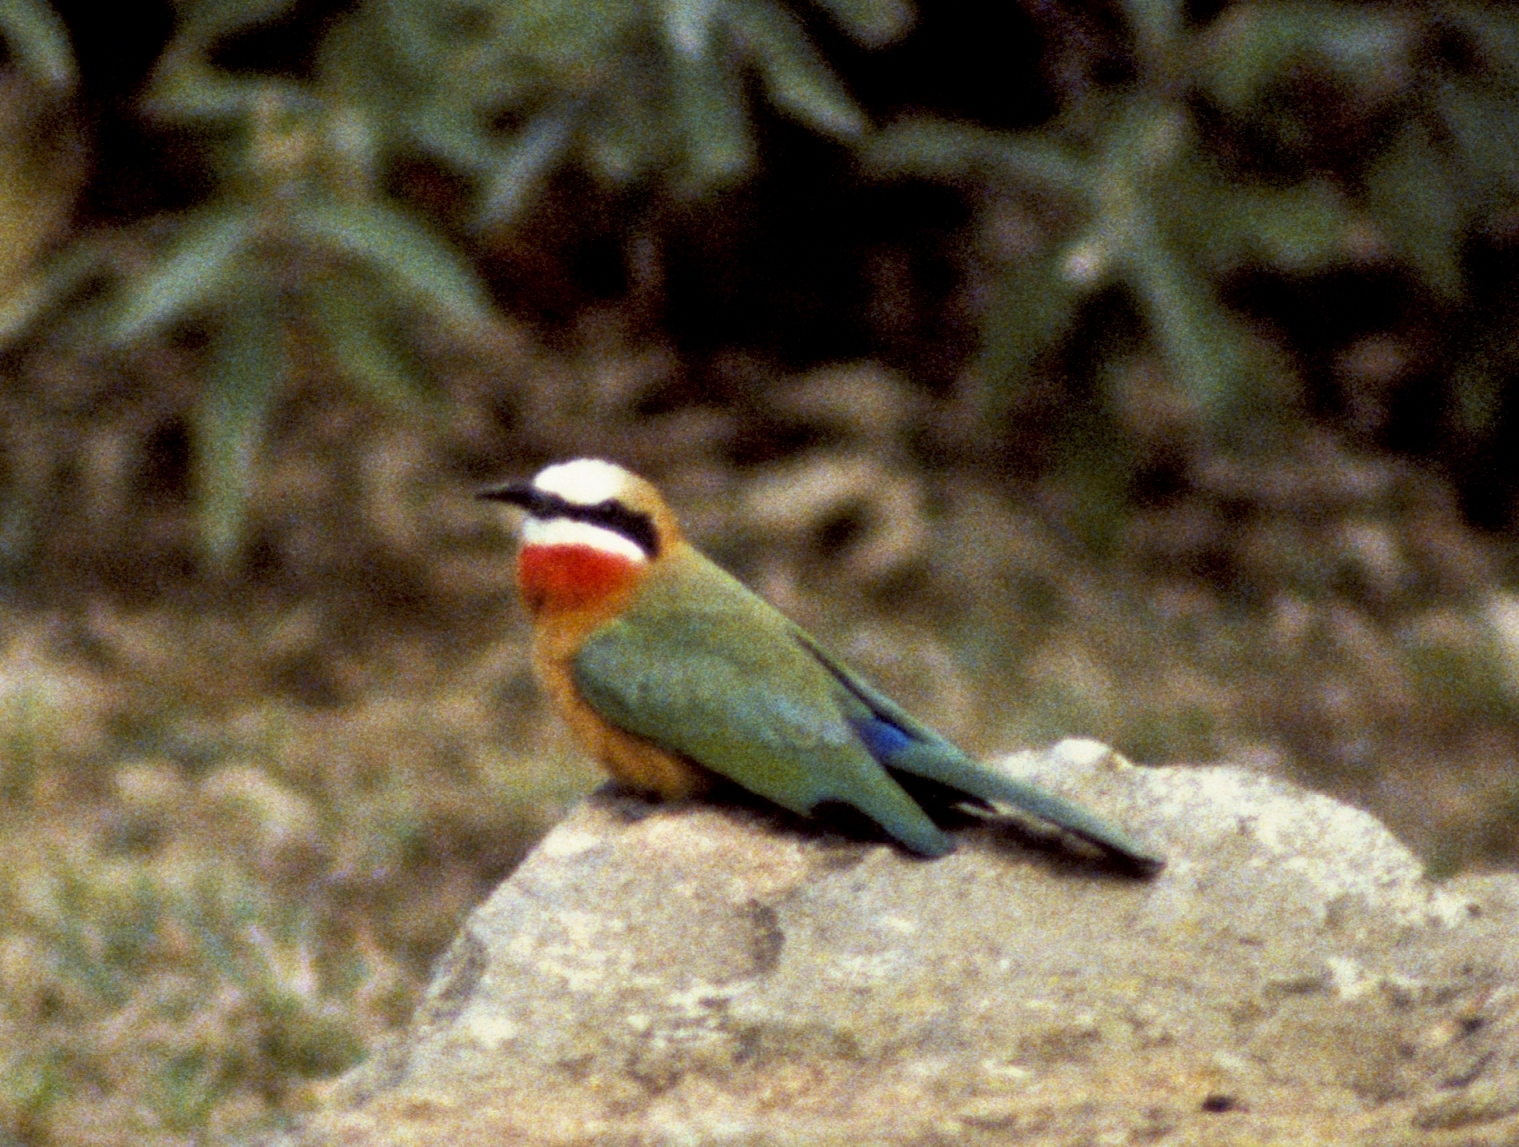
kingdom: Animalia
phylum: Chordata
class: Aves
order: Coraciiformes
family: Meropidae
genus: Merops
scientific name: Merops bullockoides
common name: White-fronted bee-eater
